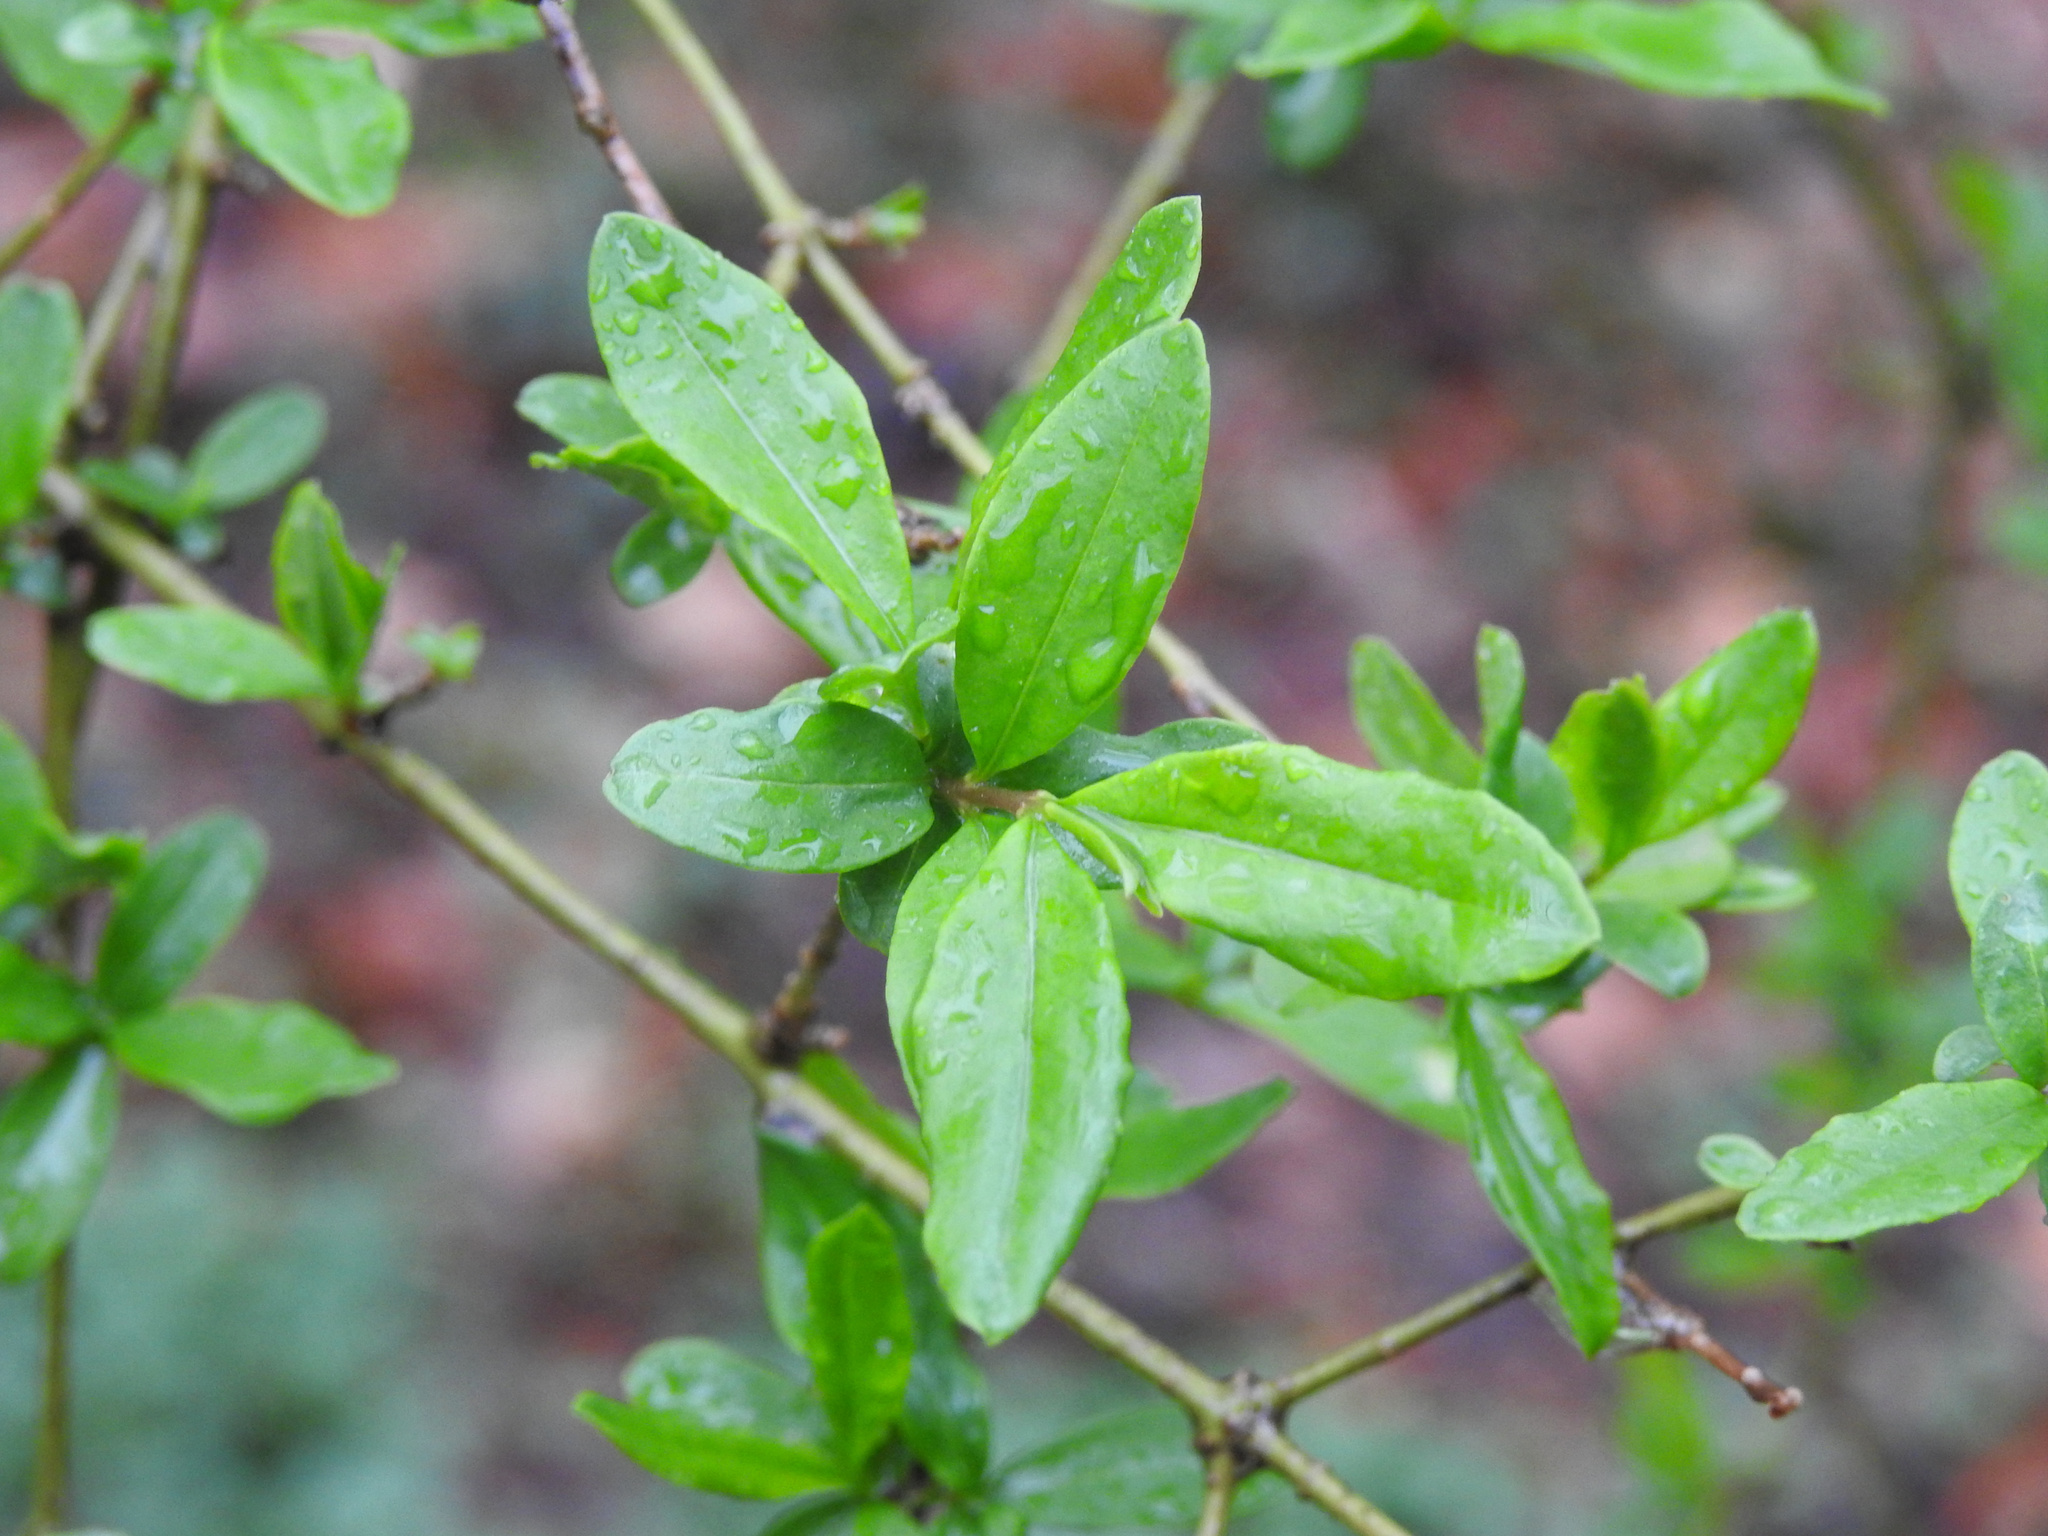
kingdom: Plantae
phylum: Tracheophyta
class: Magnoliopsida
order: Lamiales
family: Oleaceae
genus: Ligustrum
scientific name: Ligustrum obtusifolium
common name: Border privet
